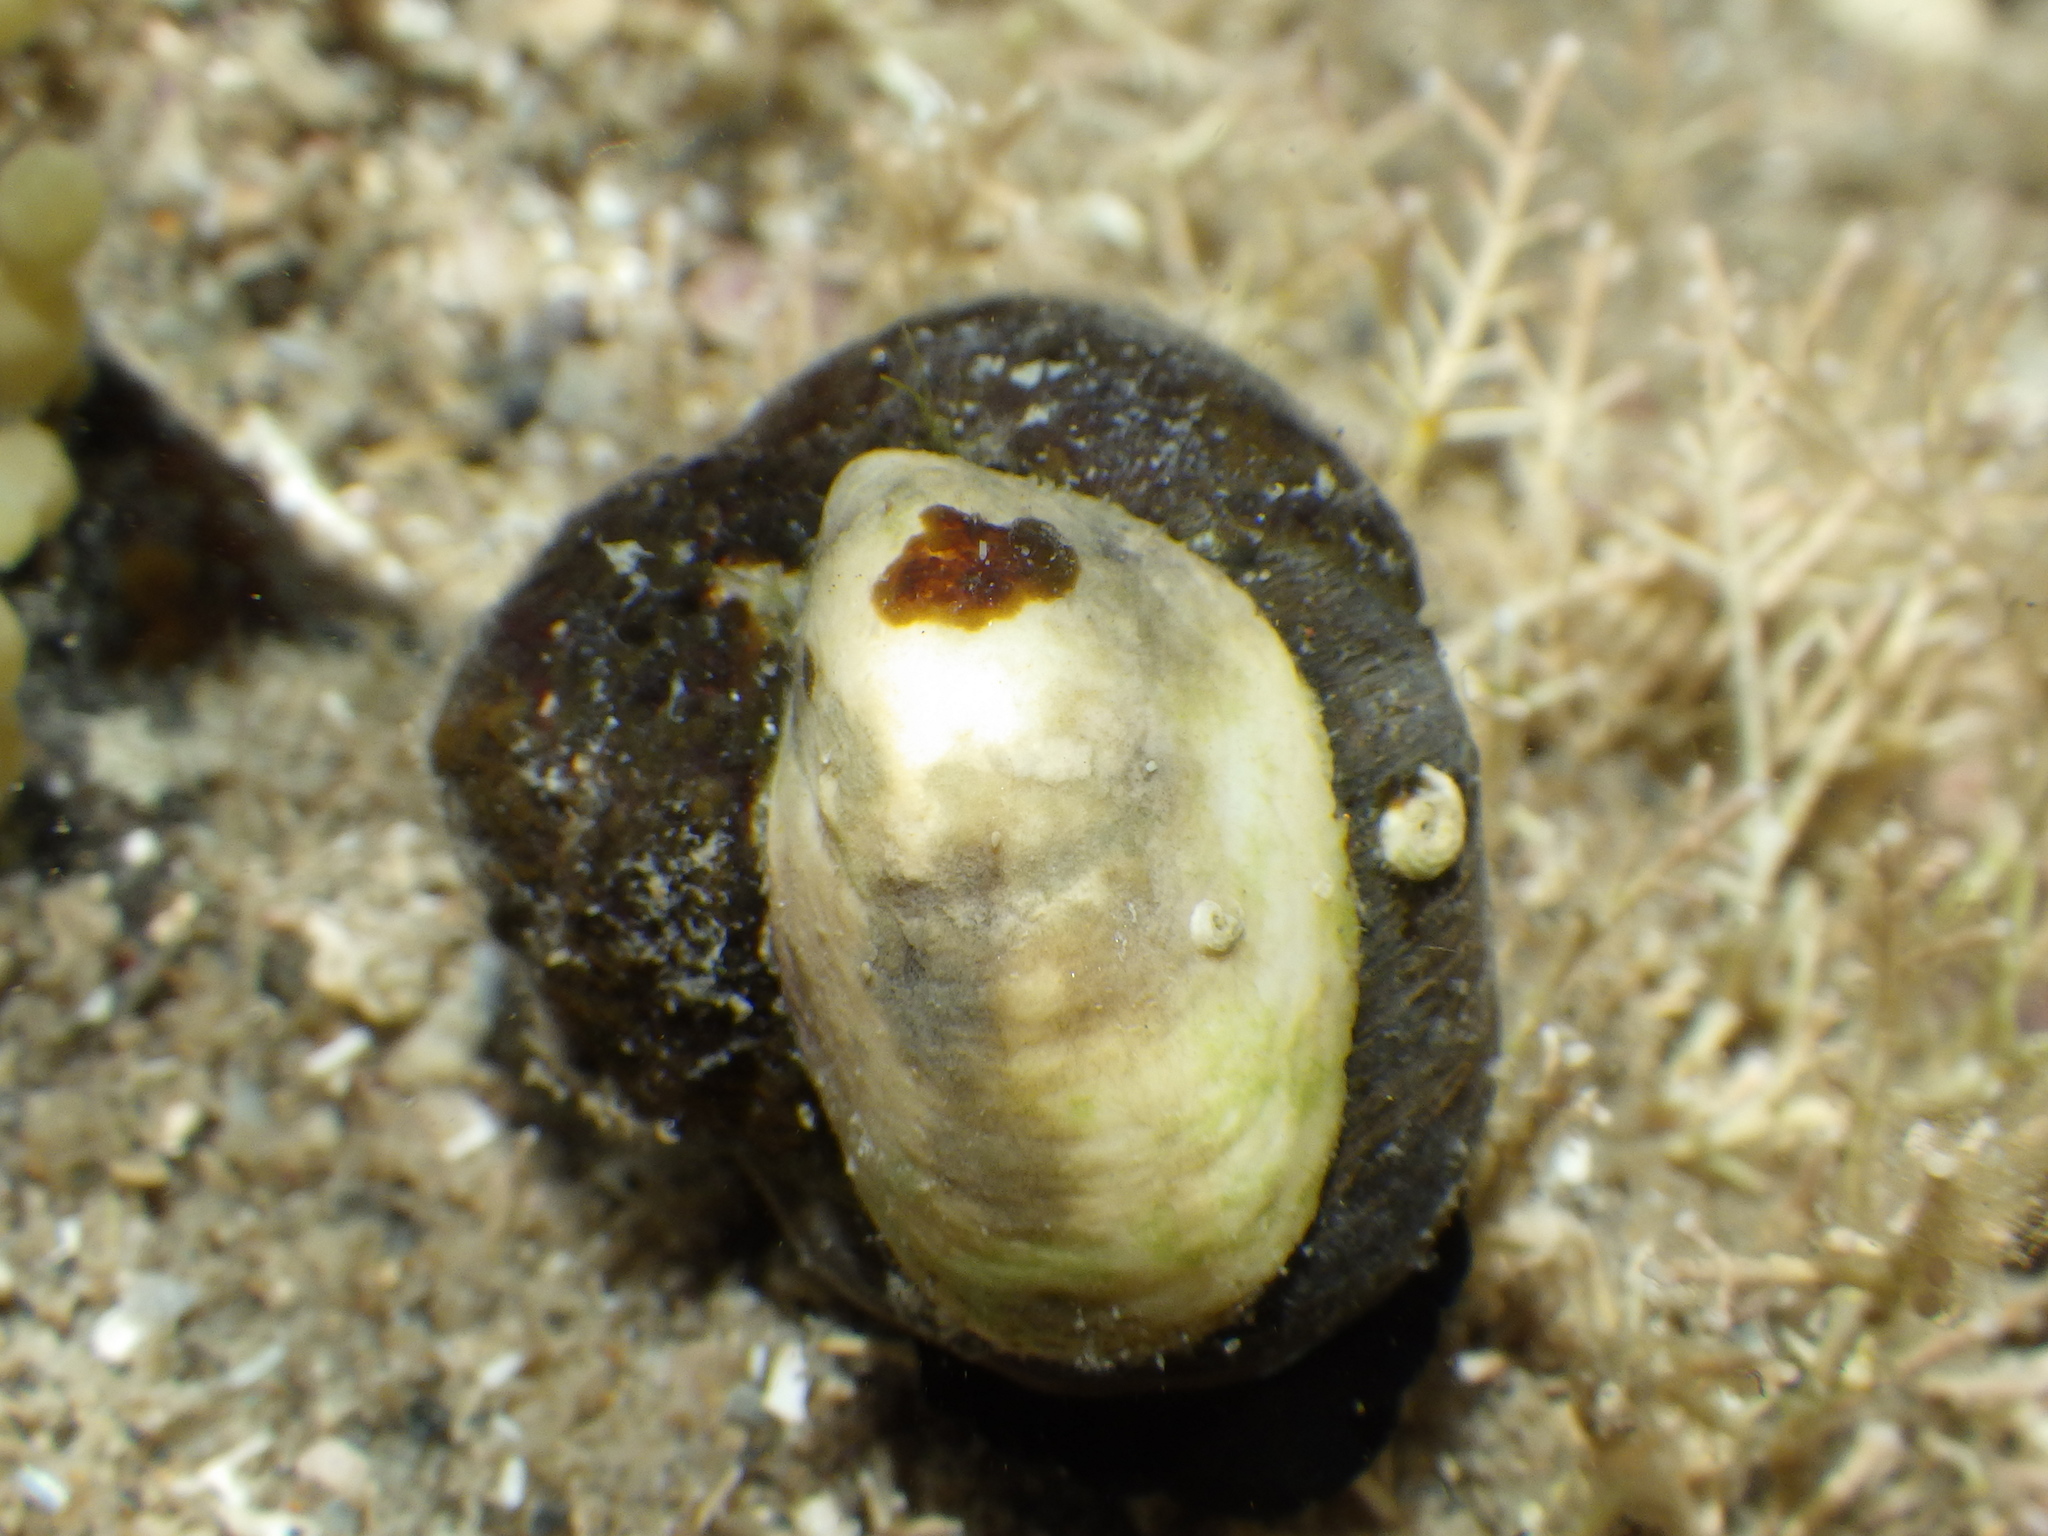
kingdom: Animalia
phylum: Mollusca
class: Gastropoda
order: Littorinimorpha
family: Calyptraeidae
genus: Maoricrypta
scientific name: Maoricrypta monoxyla
